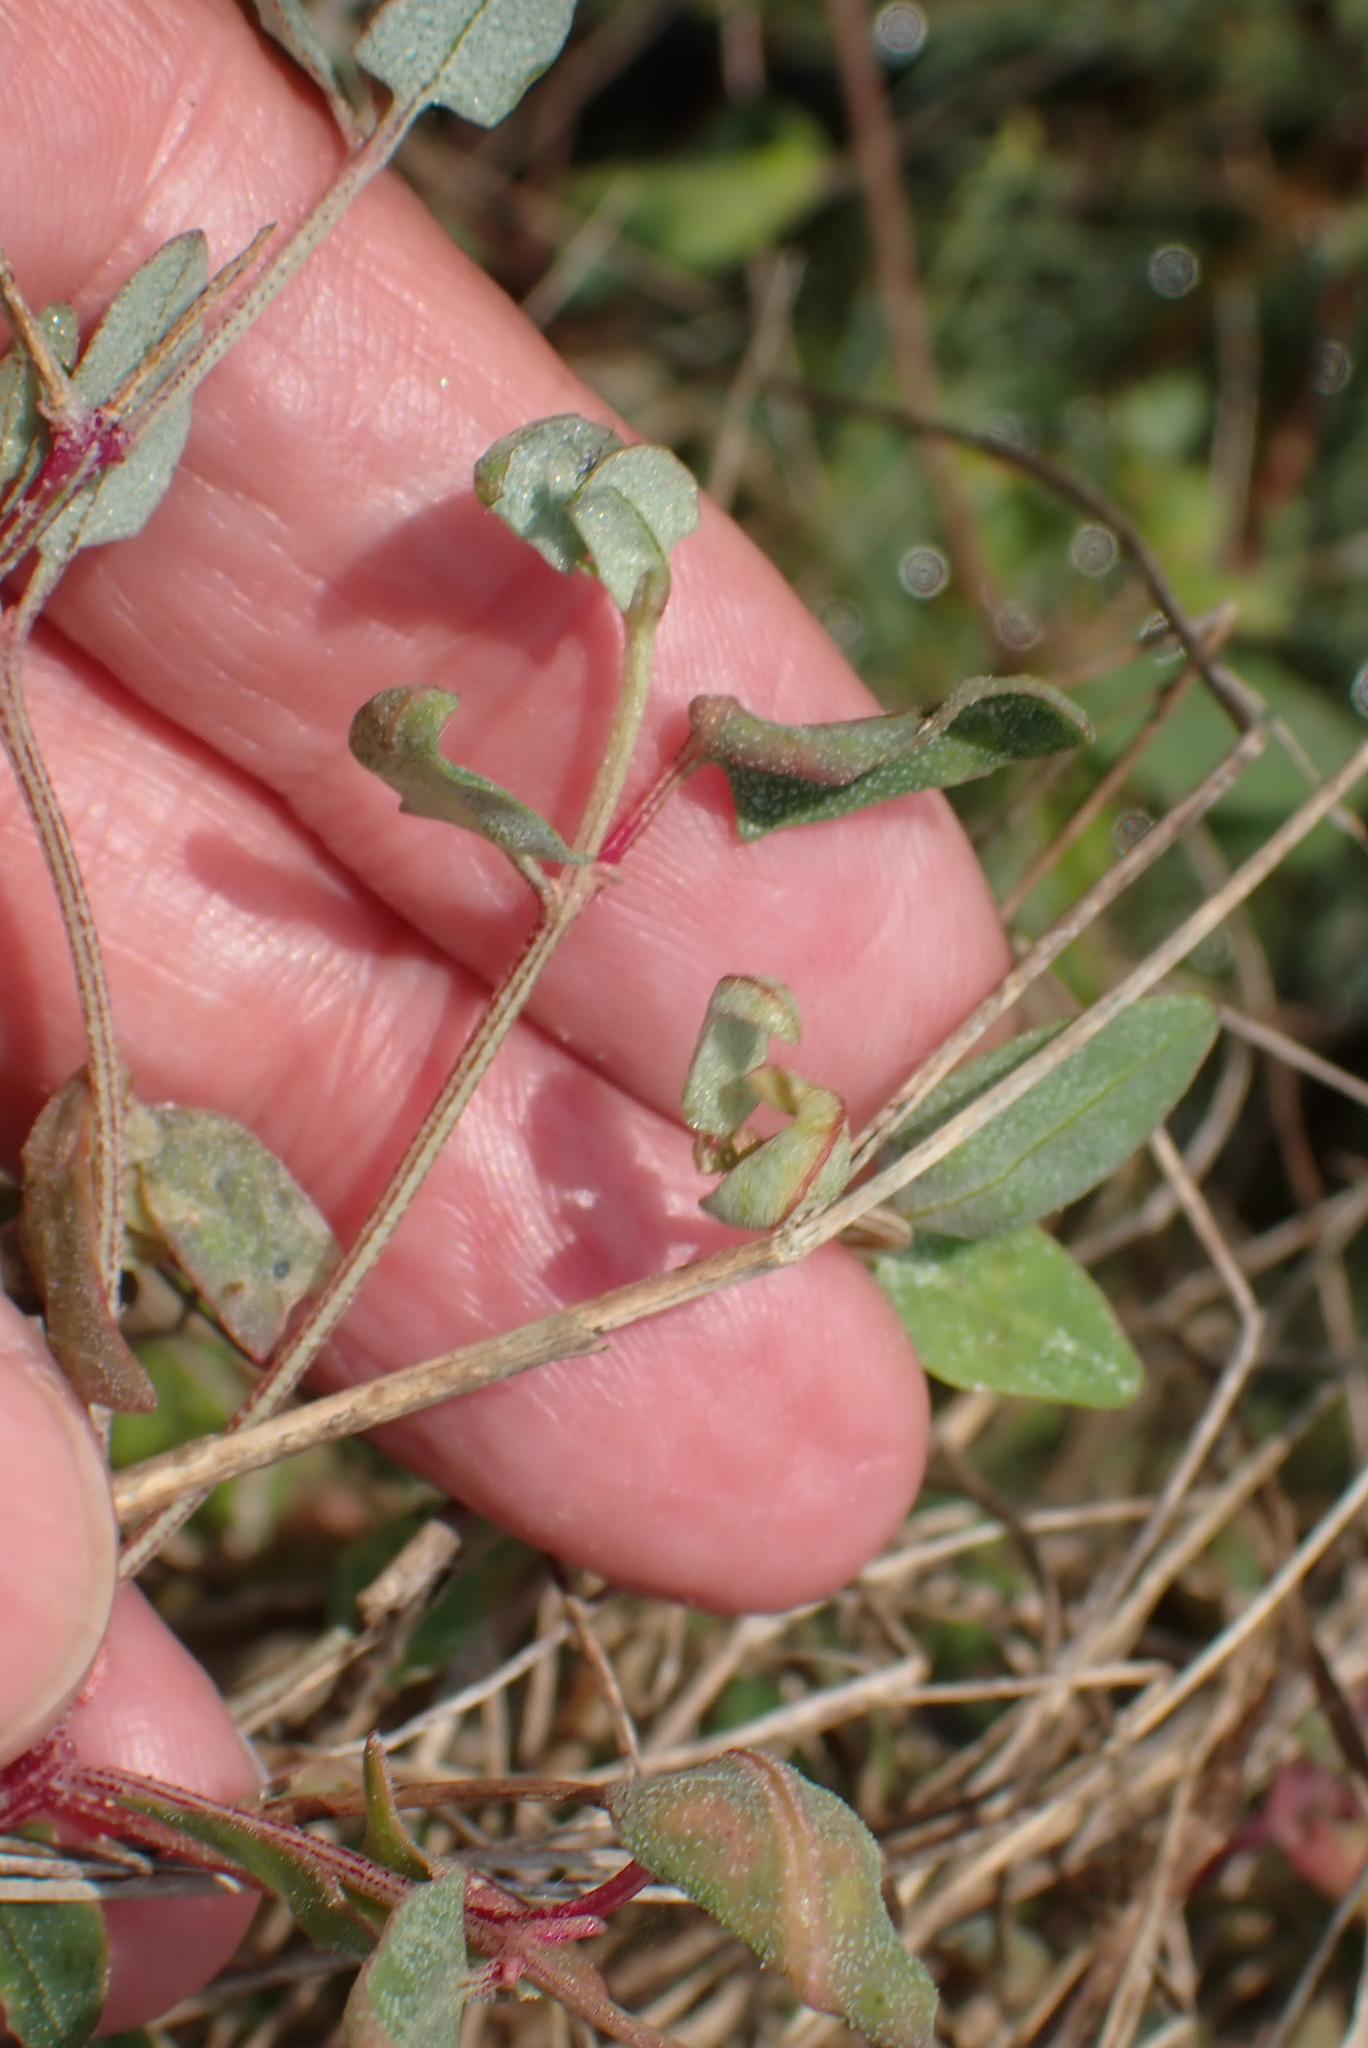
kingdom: Plantae
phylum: Tracheophyta
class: Magnoliopsida
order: Caryophyllales
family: Amaranthaceae
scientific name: Amaranthaceae
